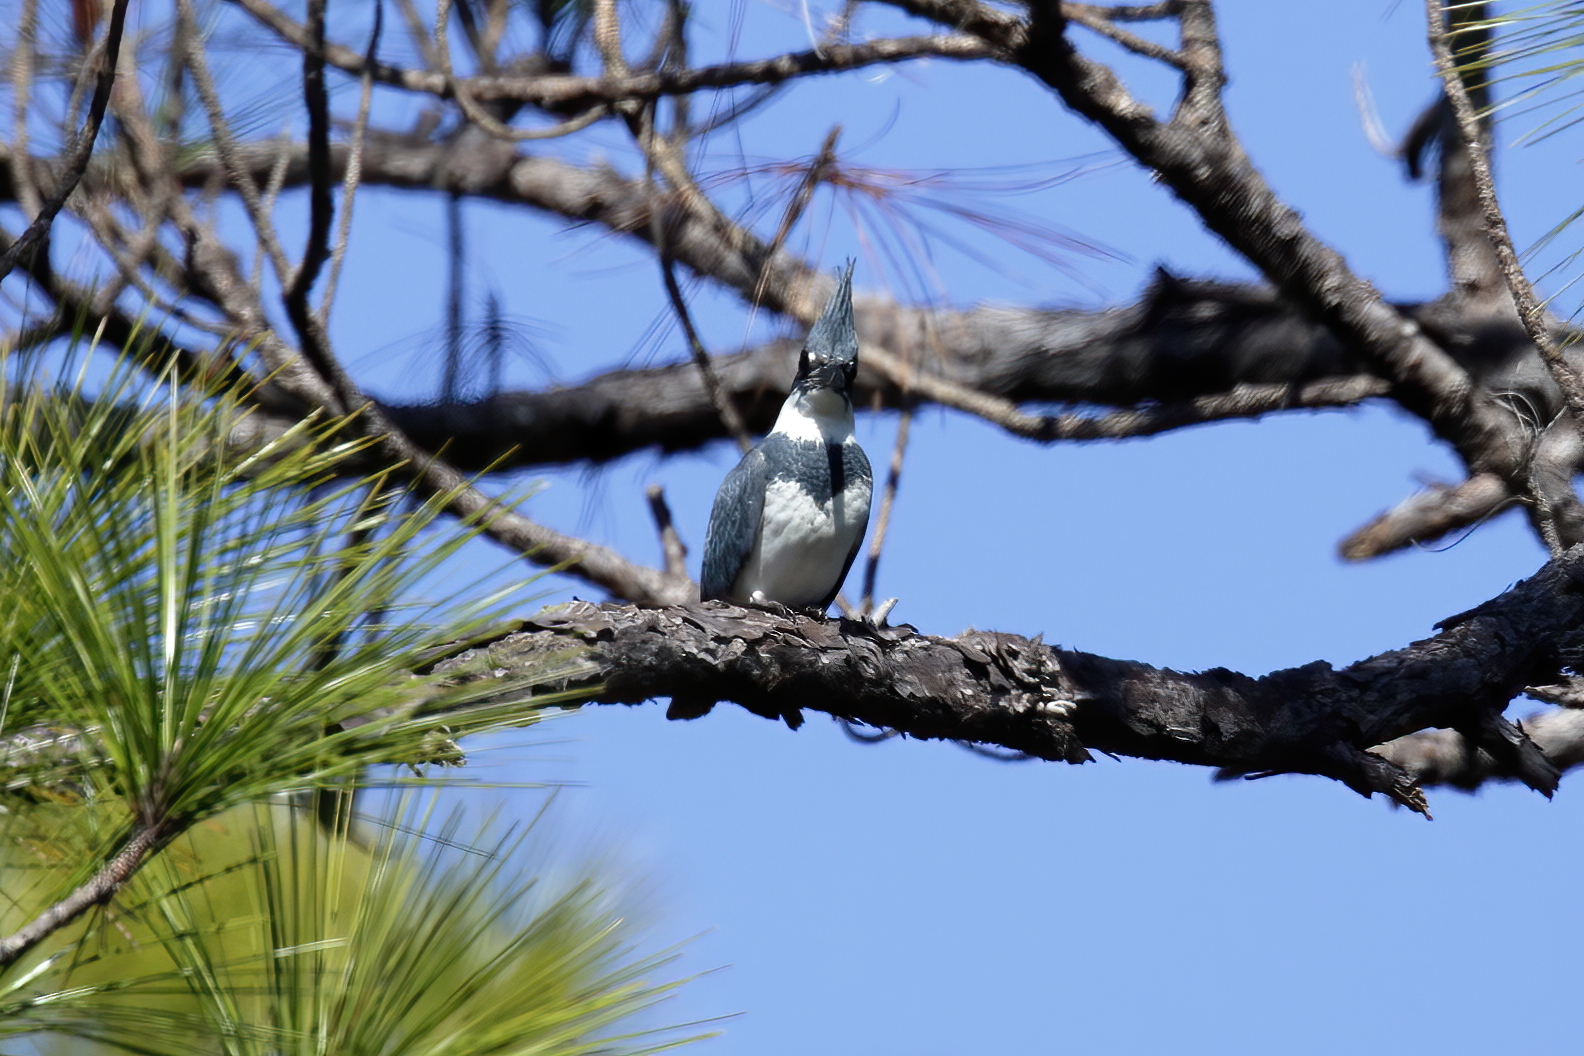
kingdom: Animalia
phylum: Chordata
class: Aves
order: Coraciiformes
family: Alcedinidae
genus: Megaceryle
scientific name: Megaceryle alcyon
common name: Belted kingfisher
